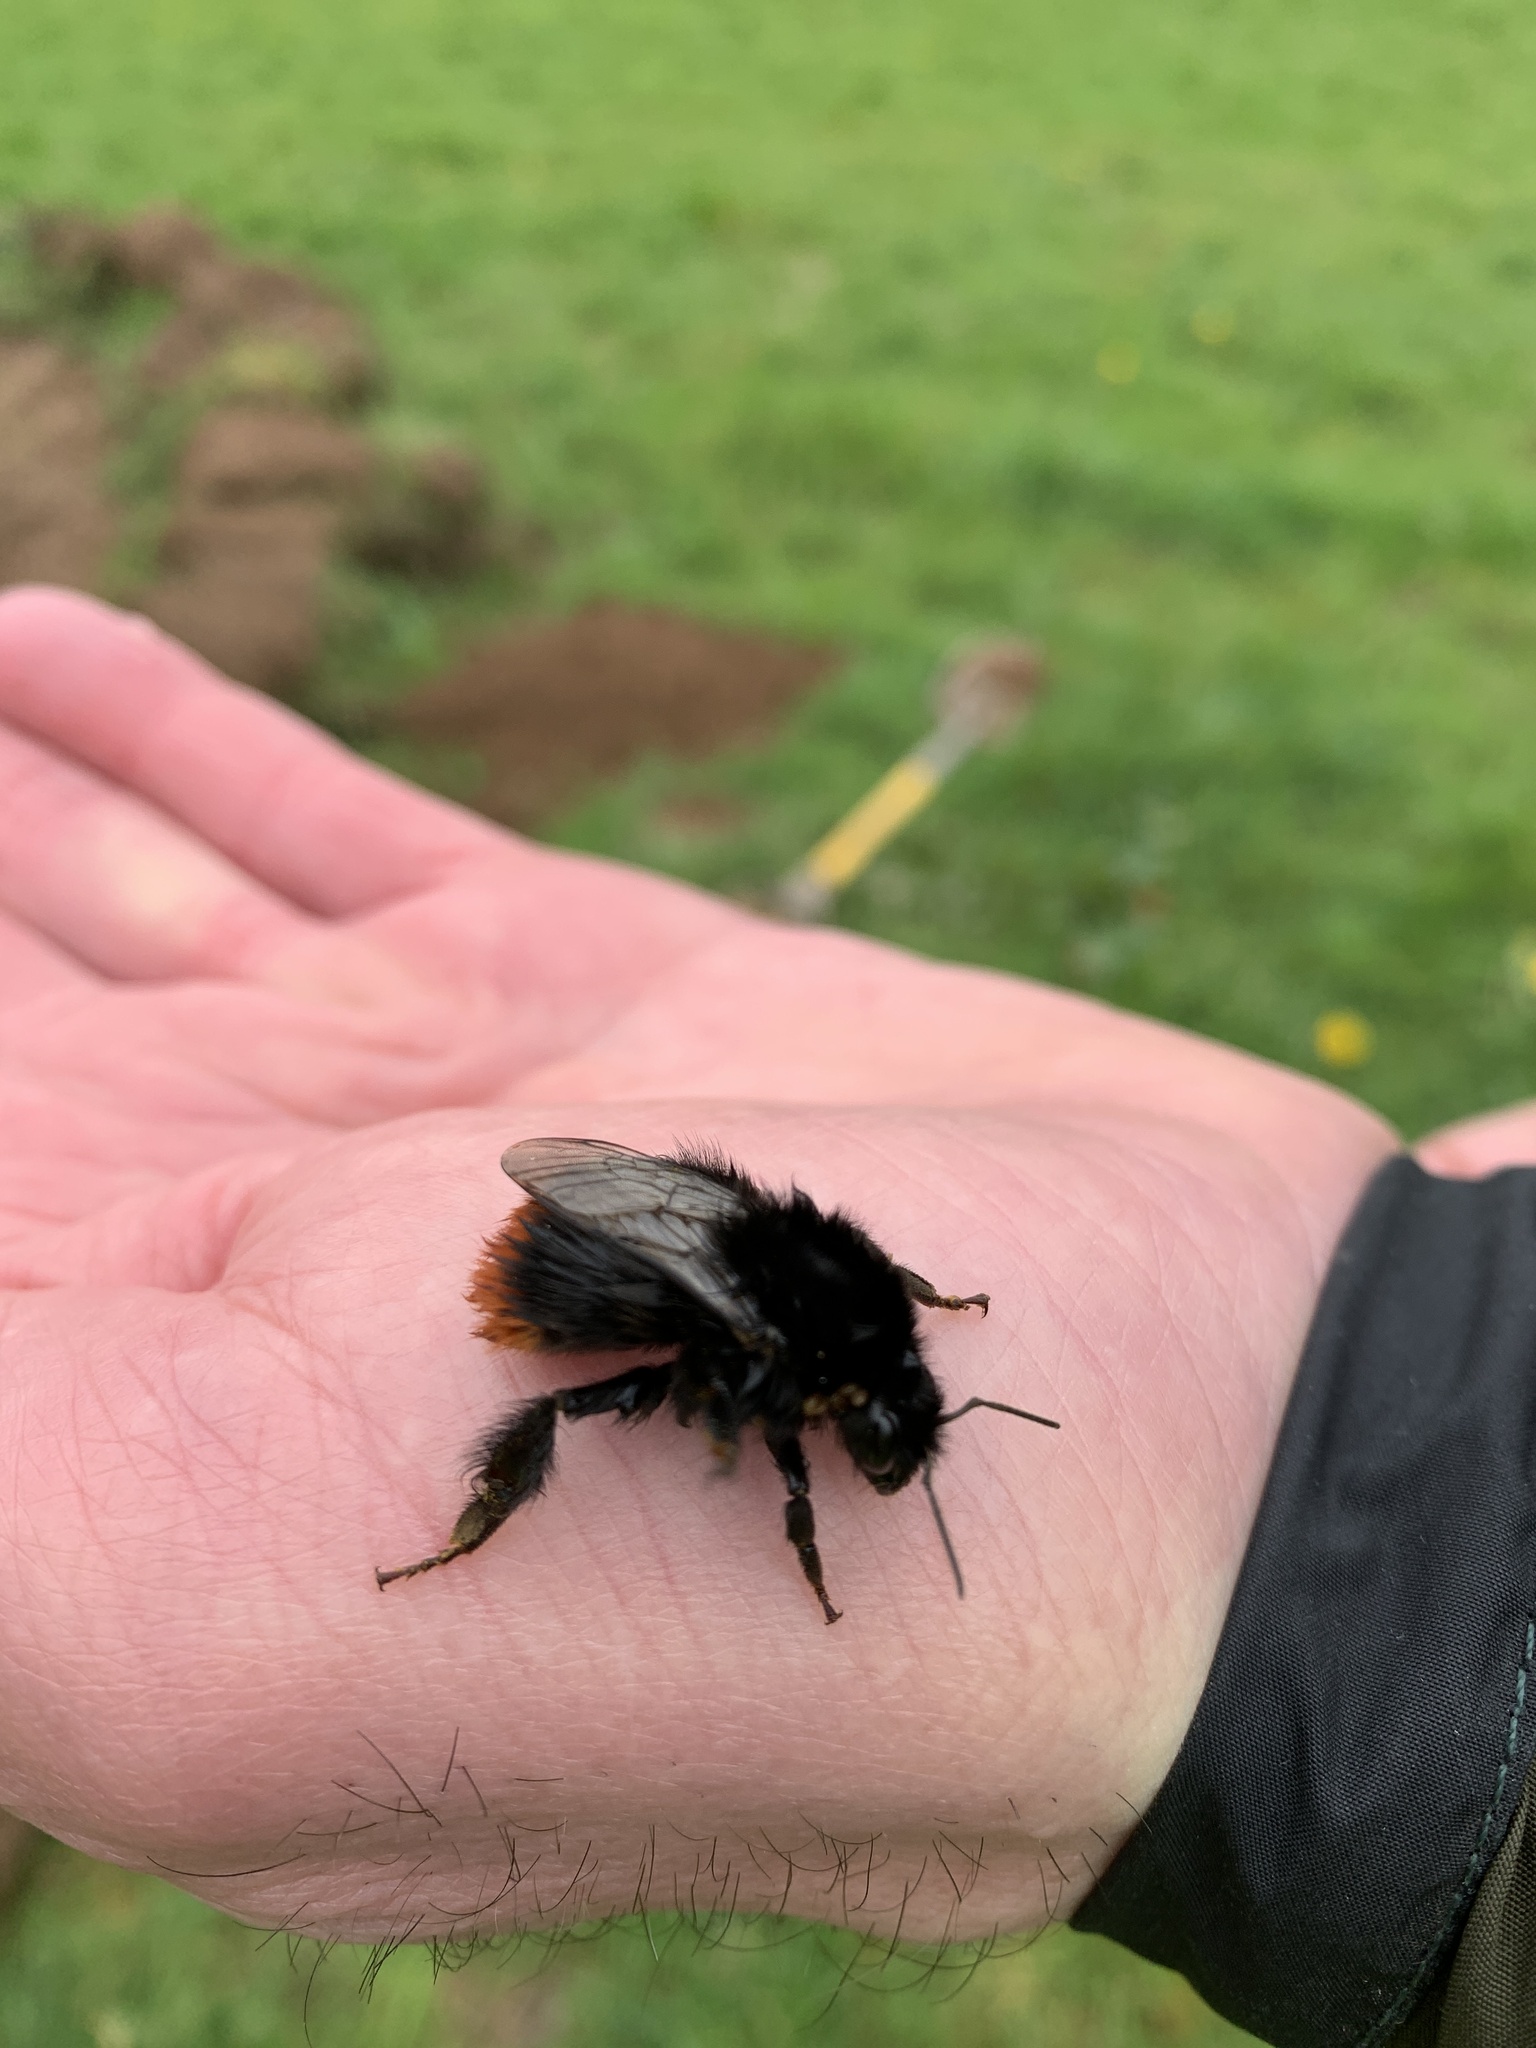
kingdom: Animalia
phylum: Arthropoda
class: Insecta
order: Hymenoptera
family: Apidae
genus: Bombus
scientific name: Bombus lapidarius
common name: Large red-tailed humble-bee
